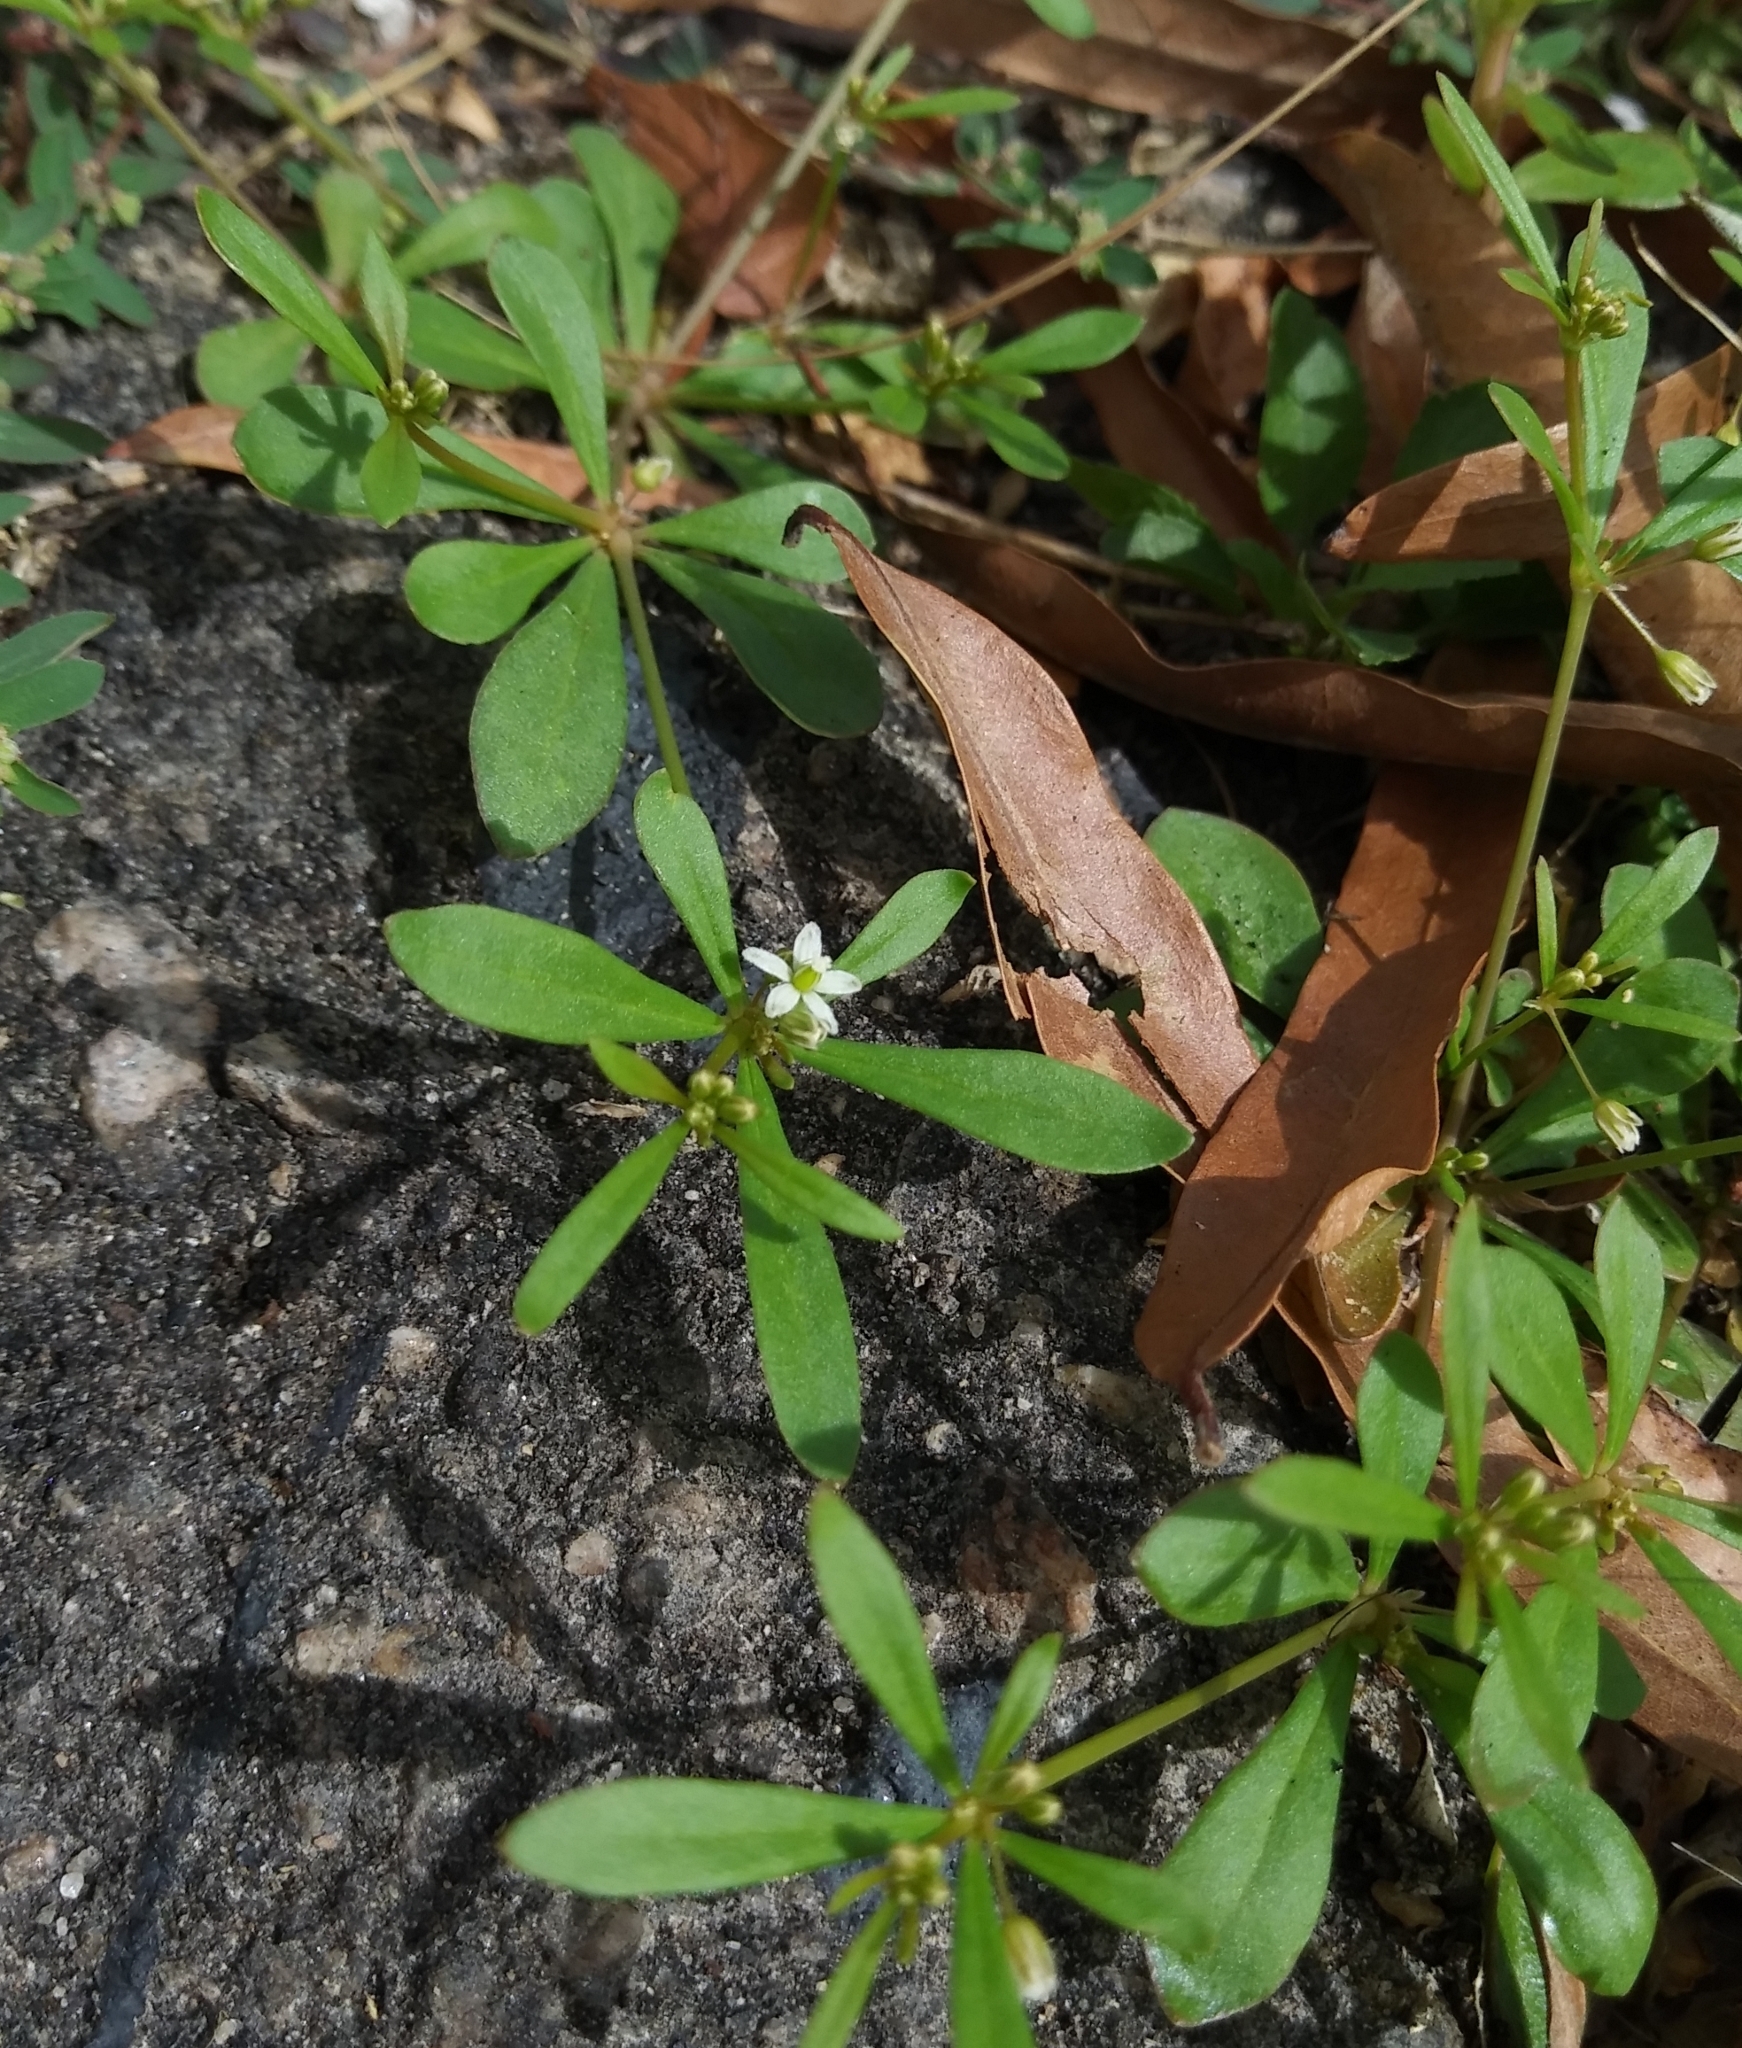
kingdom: Plantae
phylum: Tracheophyta
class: Magnoliopsida
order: Caryophyllales
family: Molluginaceae
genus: Mollugo
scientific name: Mollugo verticillata
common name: Green carpetweed
